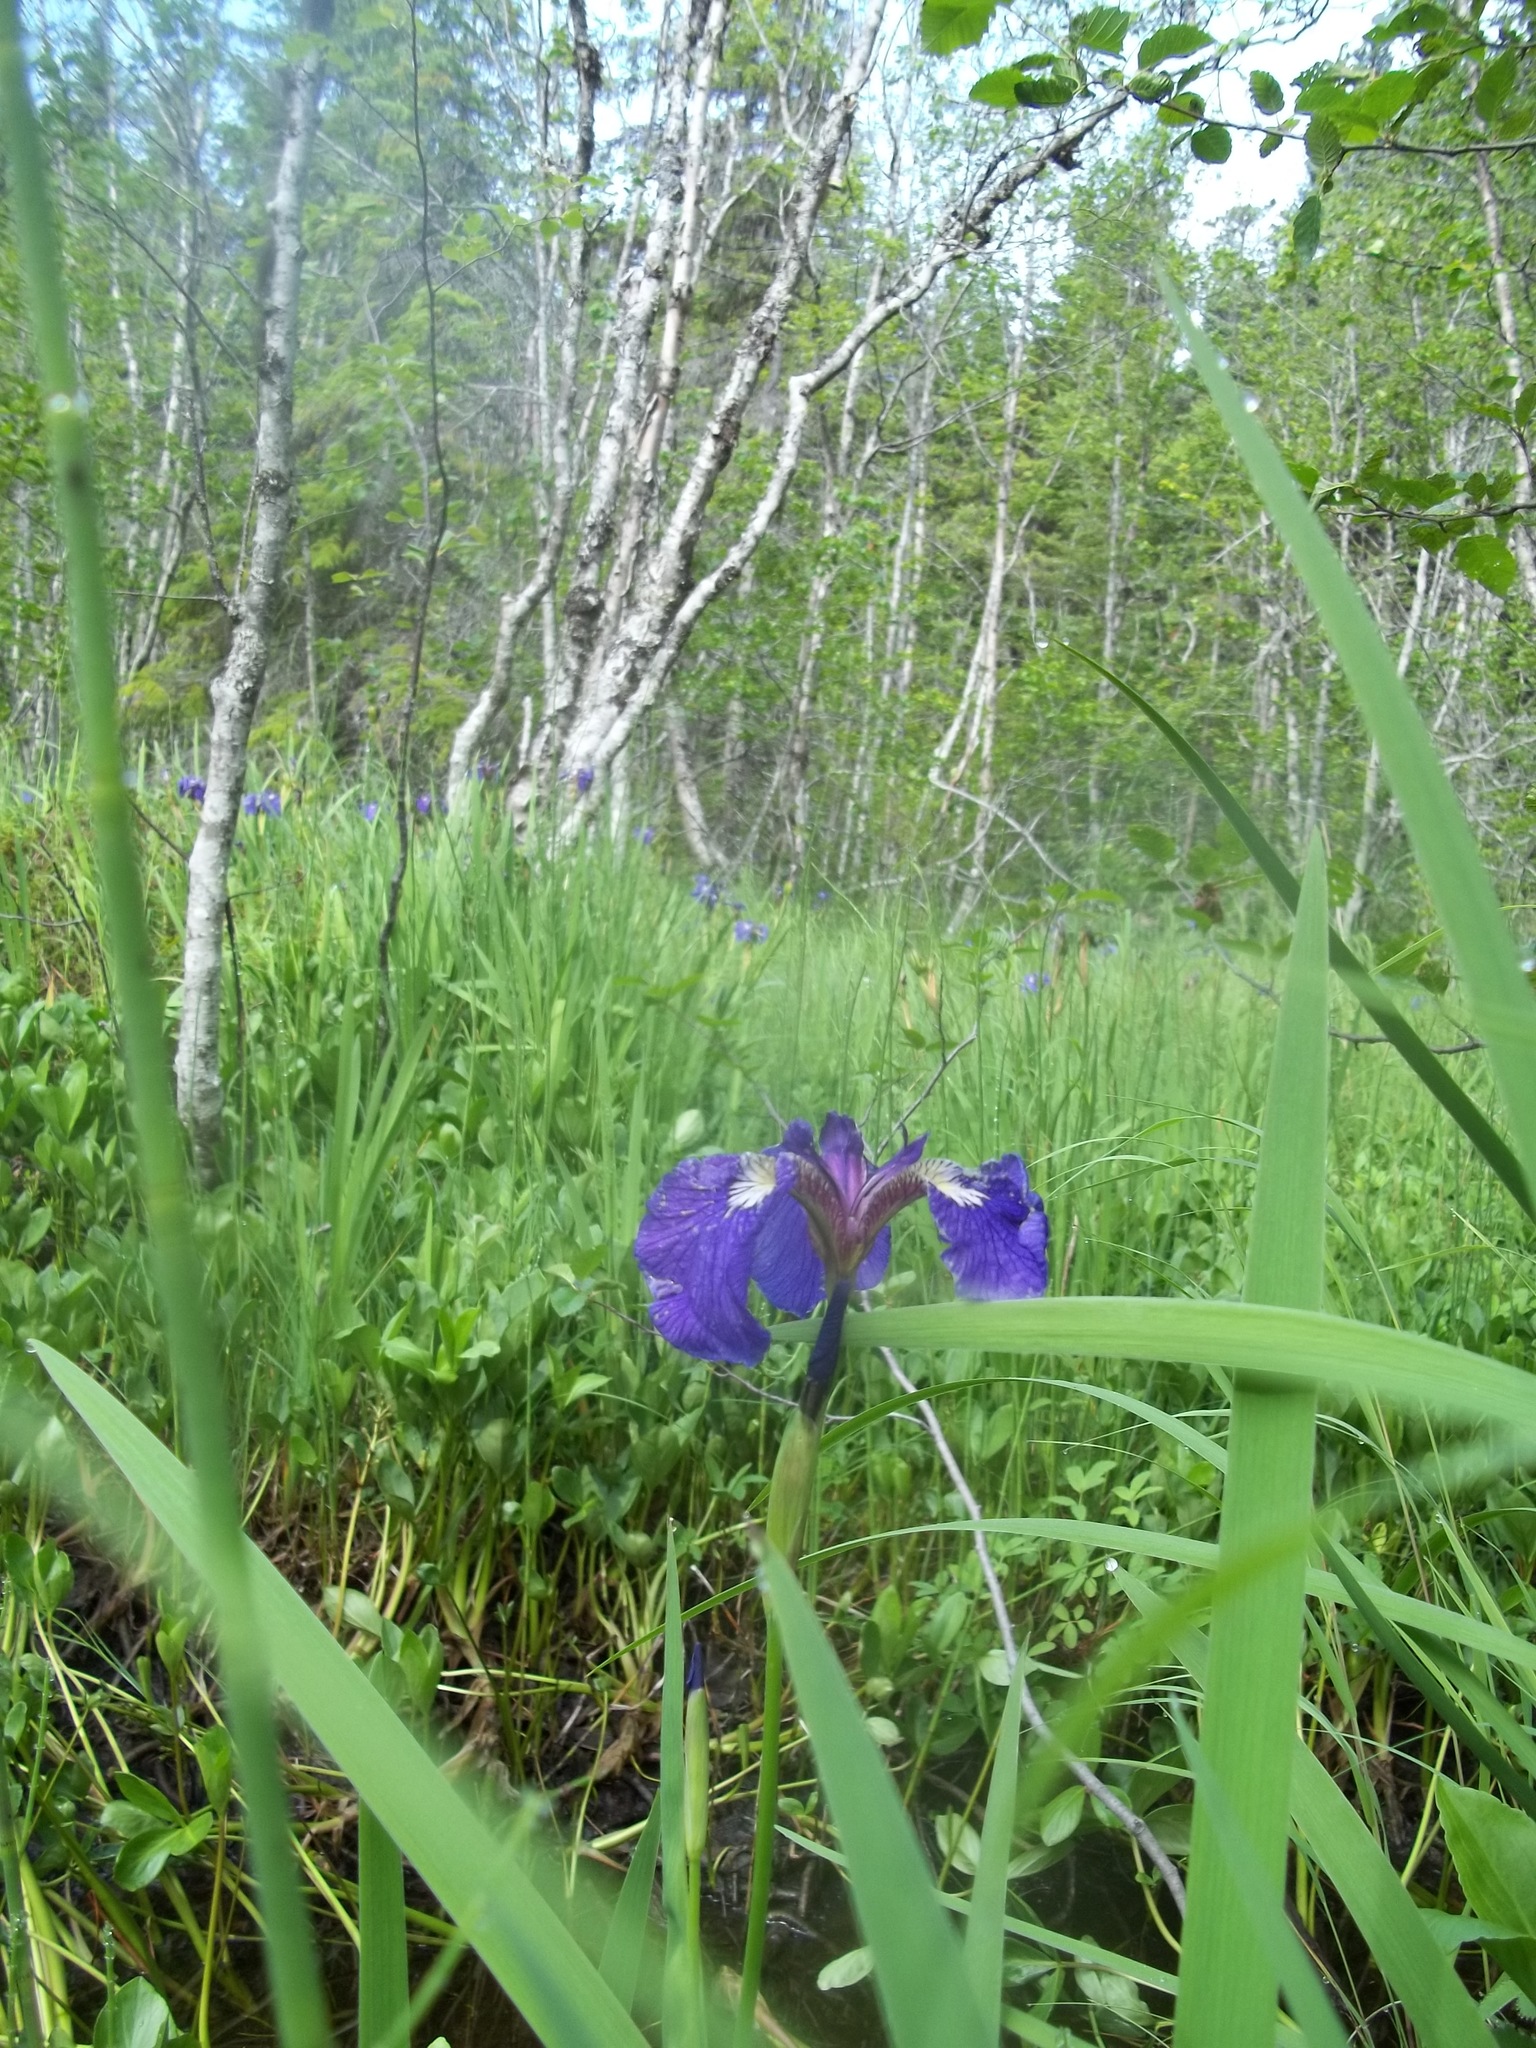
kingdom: Plantae
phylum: Tracheophyta
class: Liliopsida
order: Asparagales
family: Iridaceae
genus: Iris
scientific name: Iris setosa
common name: Arctic blue flag
